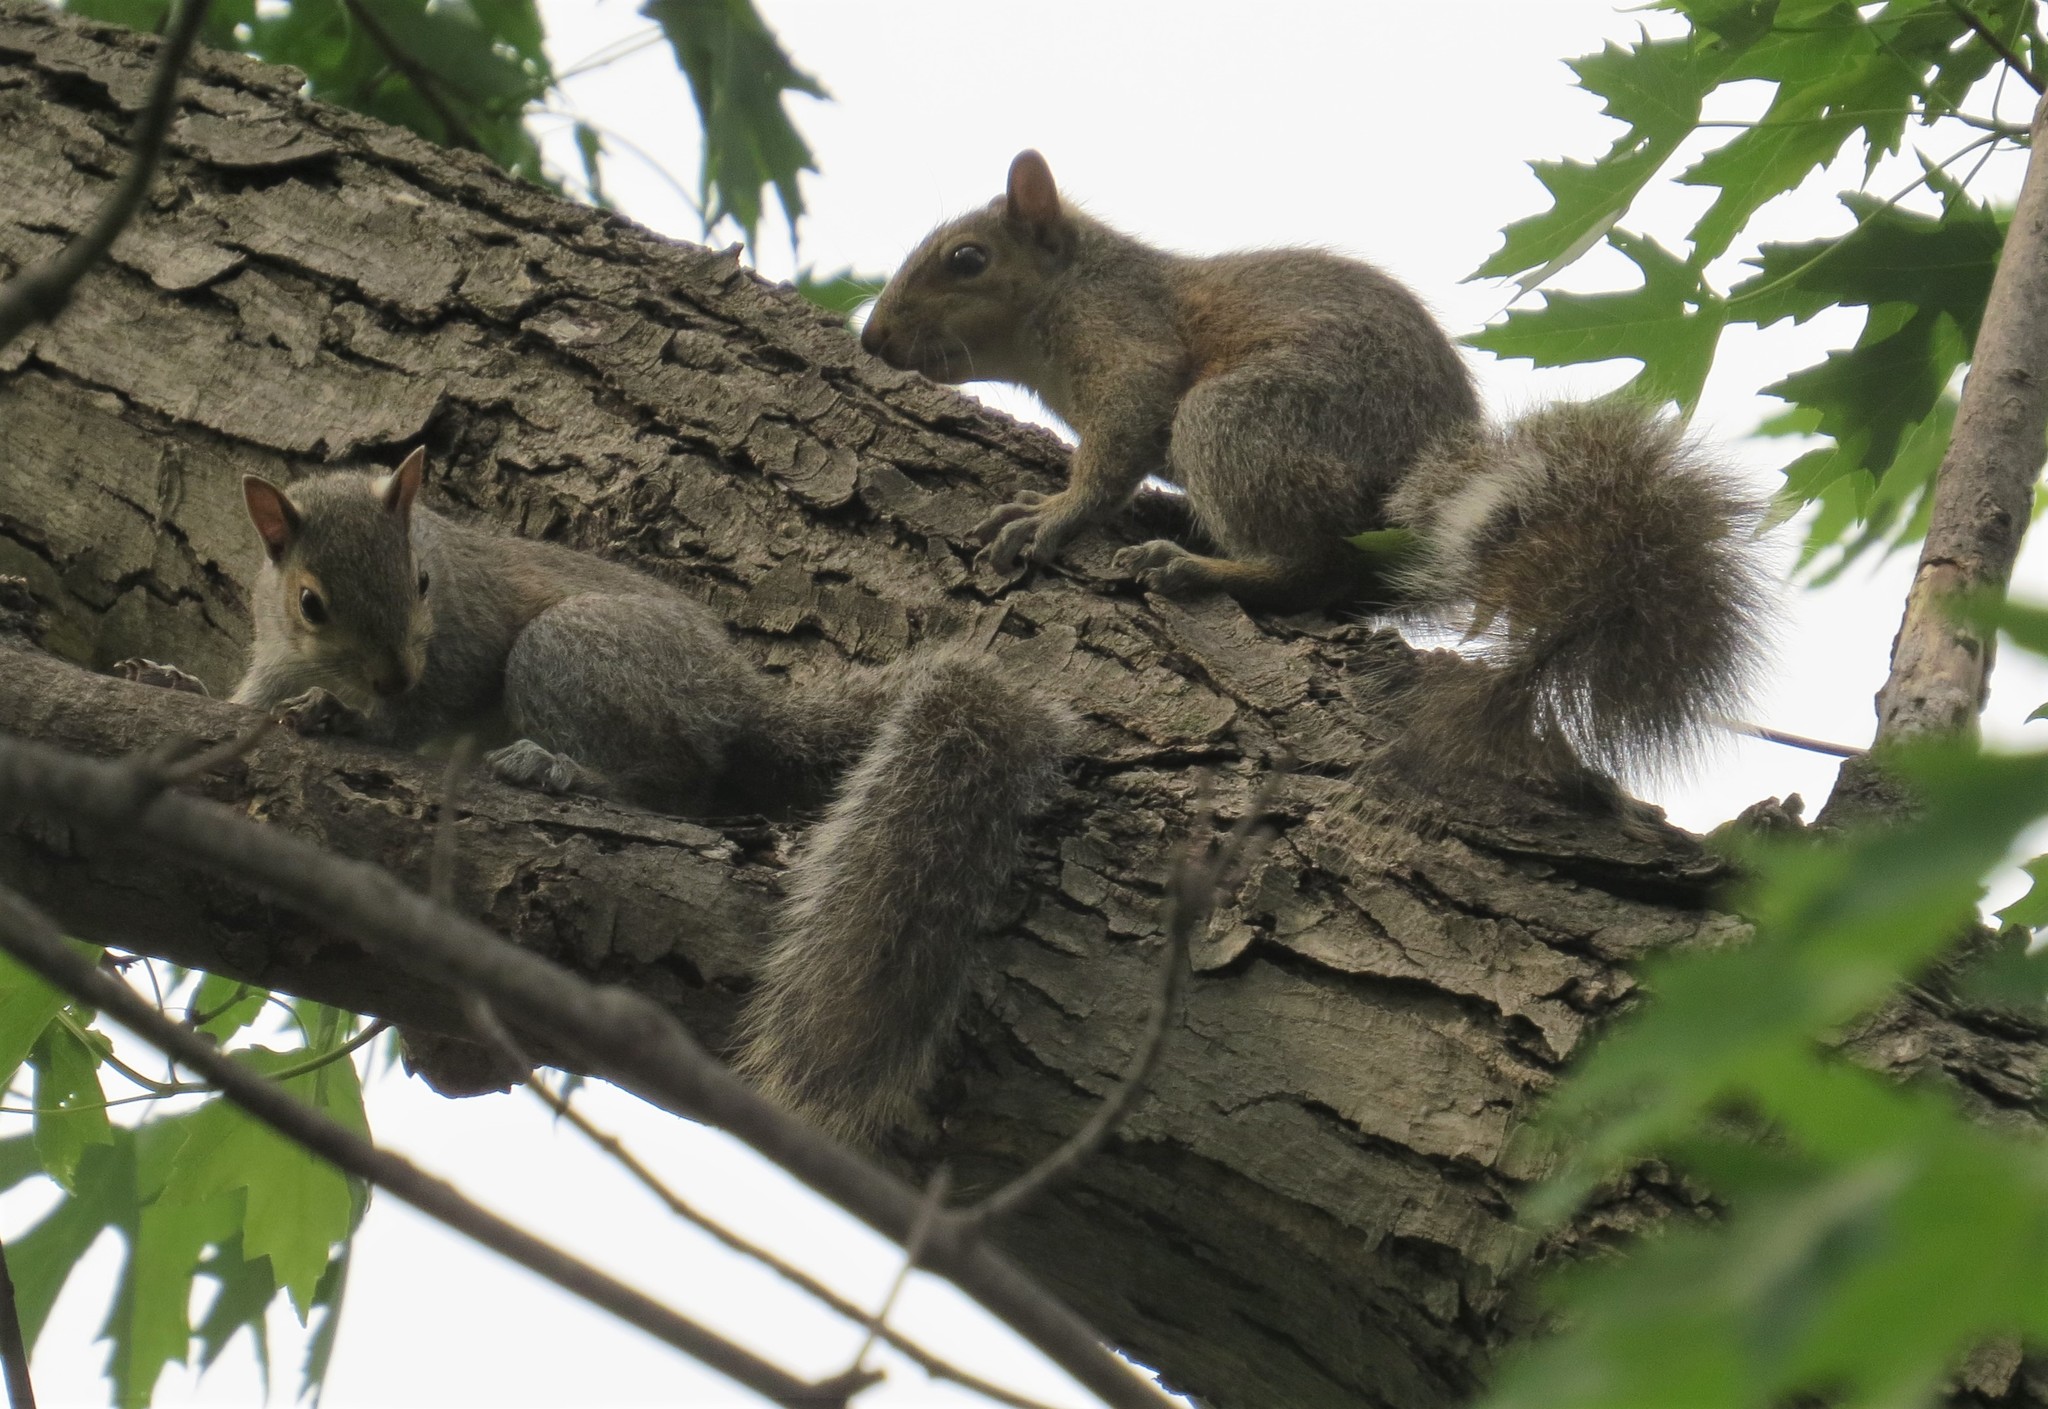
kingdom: Animalia
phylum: Chordata
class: Mammalia
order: Rodentia
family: Sciuridae
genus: Sciurus
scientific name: Sciurus carolinensis
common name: Eastern gray squirrel
